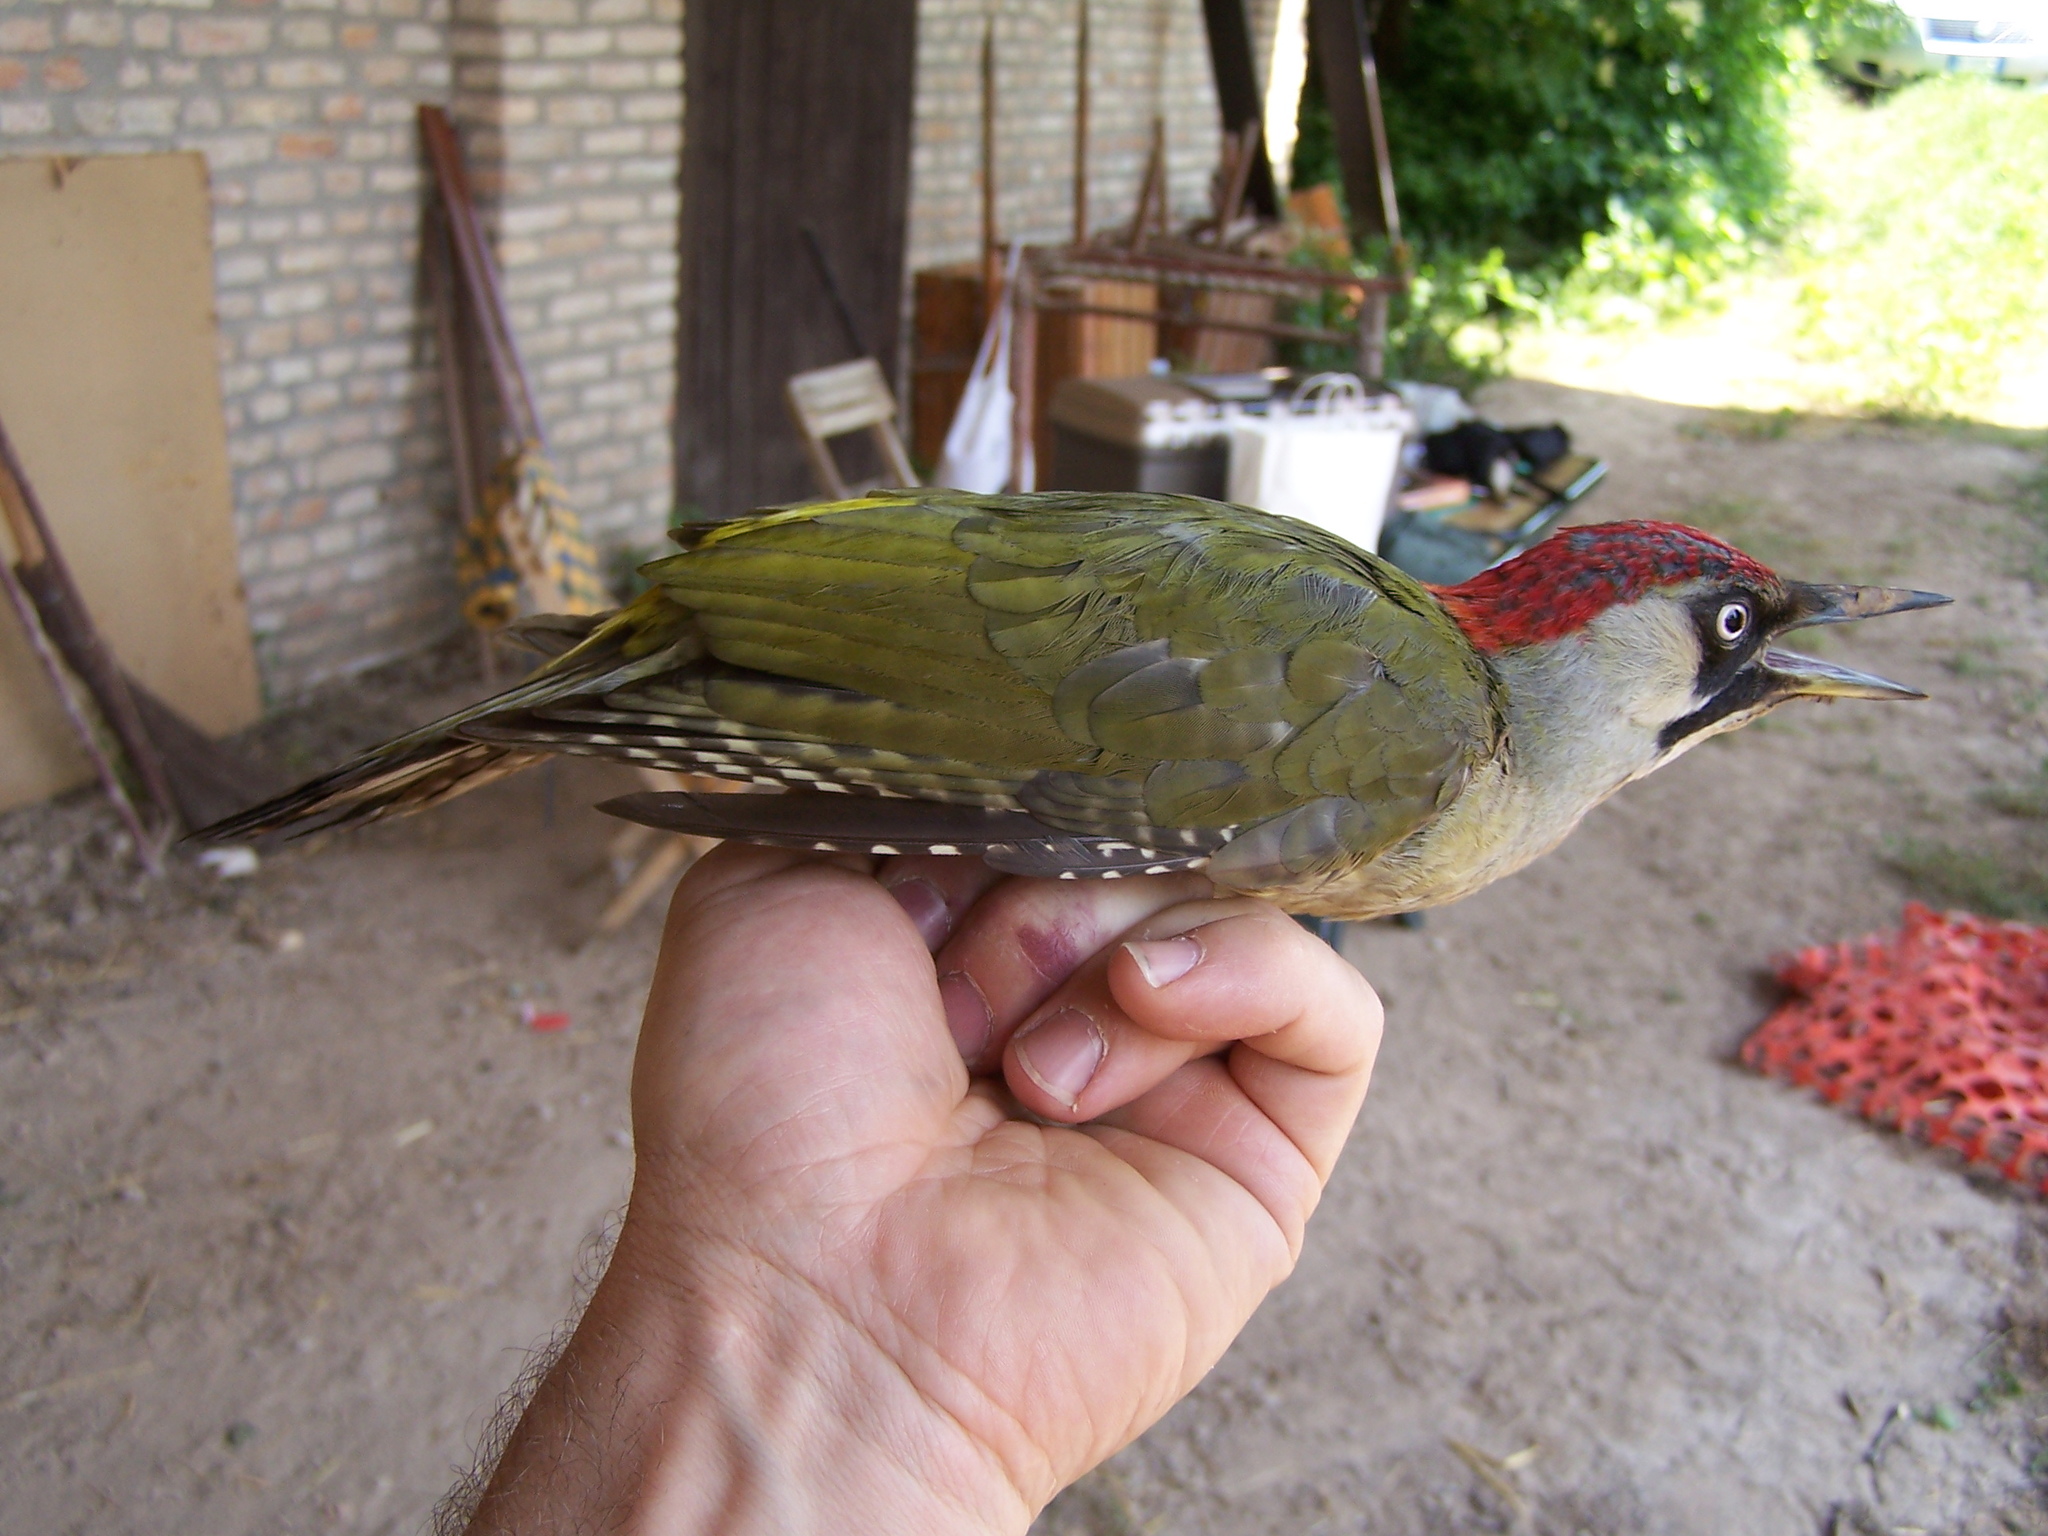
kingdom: Animalia
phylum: Chordata
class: Aves
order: Piciformes
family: Picidae
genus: Picus
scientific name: Picus viridis
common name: European green woodpecker
